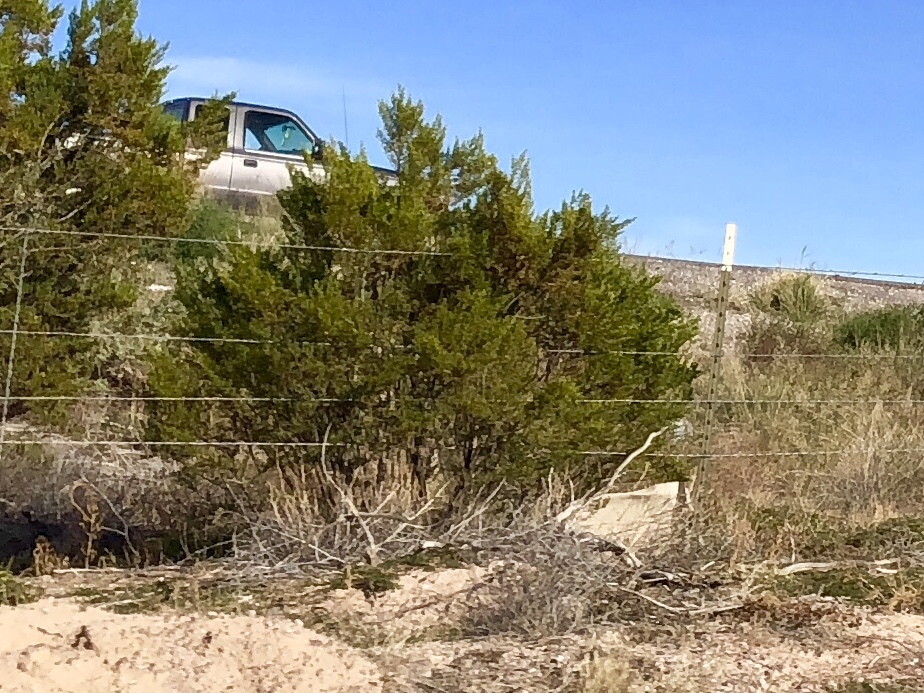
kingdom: Plantae
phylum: Tracheophyta
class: Magnoliopsida
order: Zygophyllales
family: Zygophyllaceae
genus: Larrea
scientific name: Larrea tridentata
